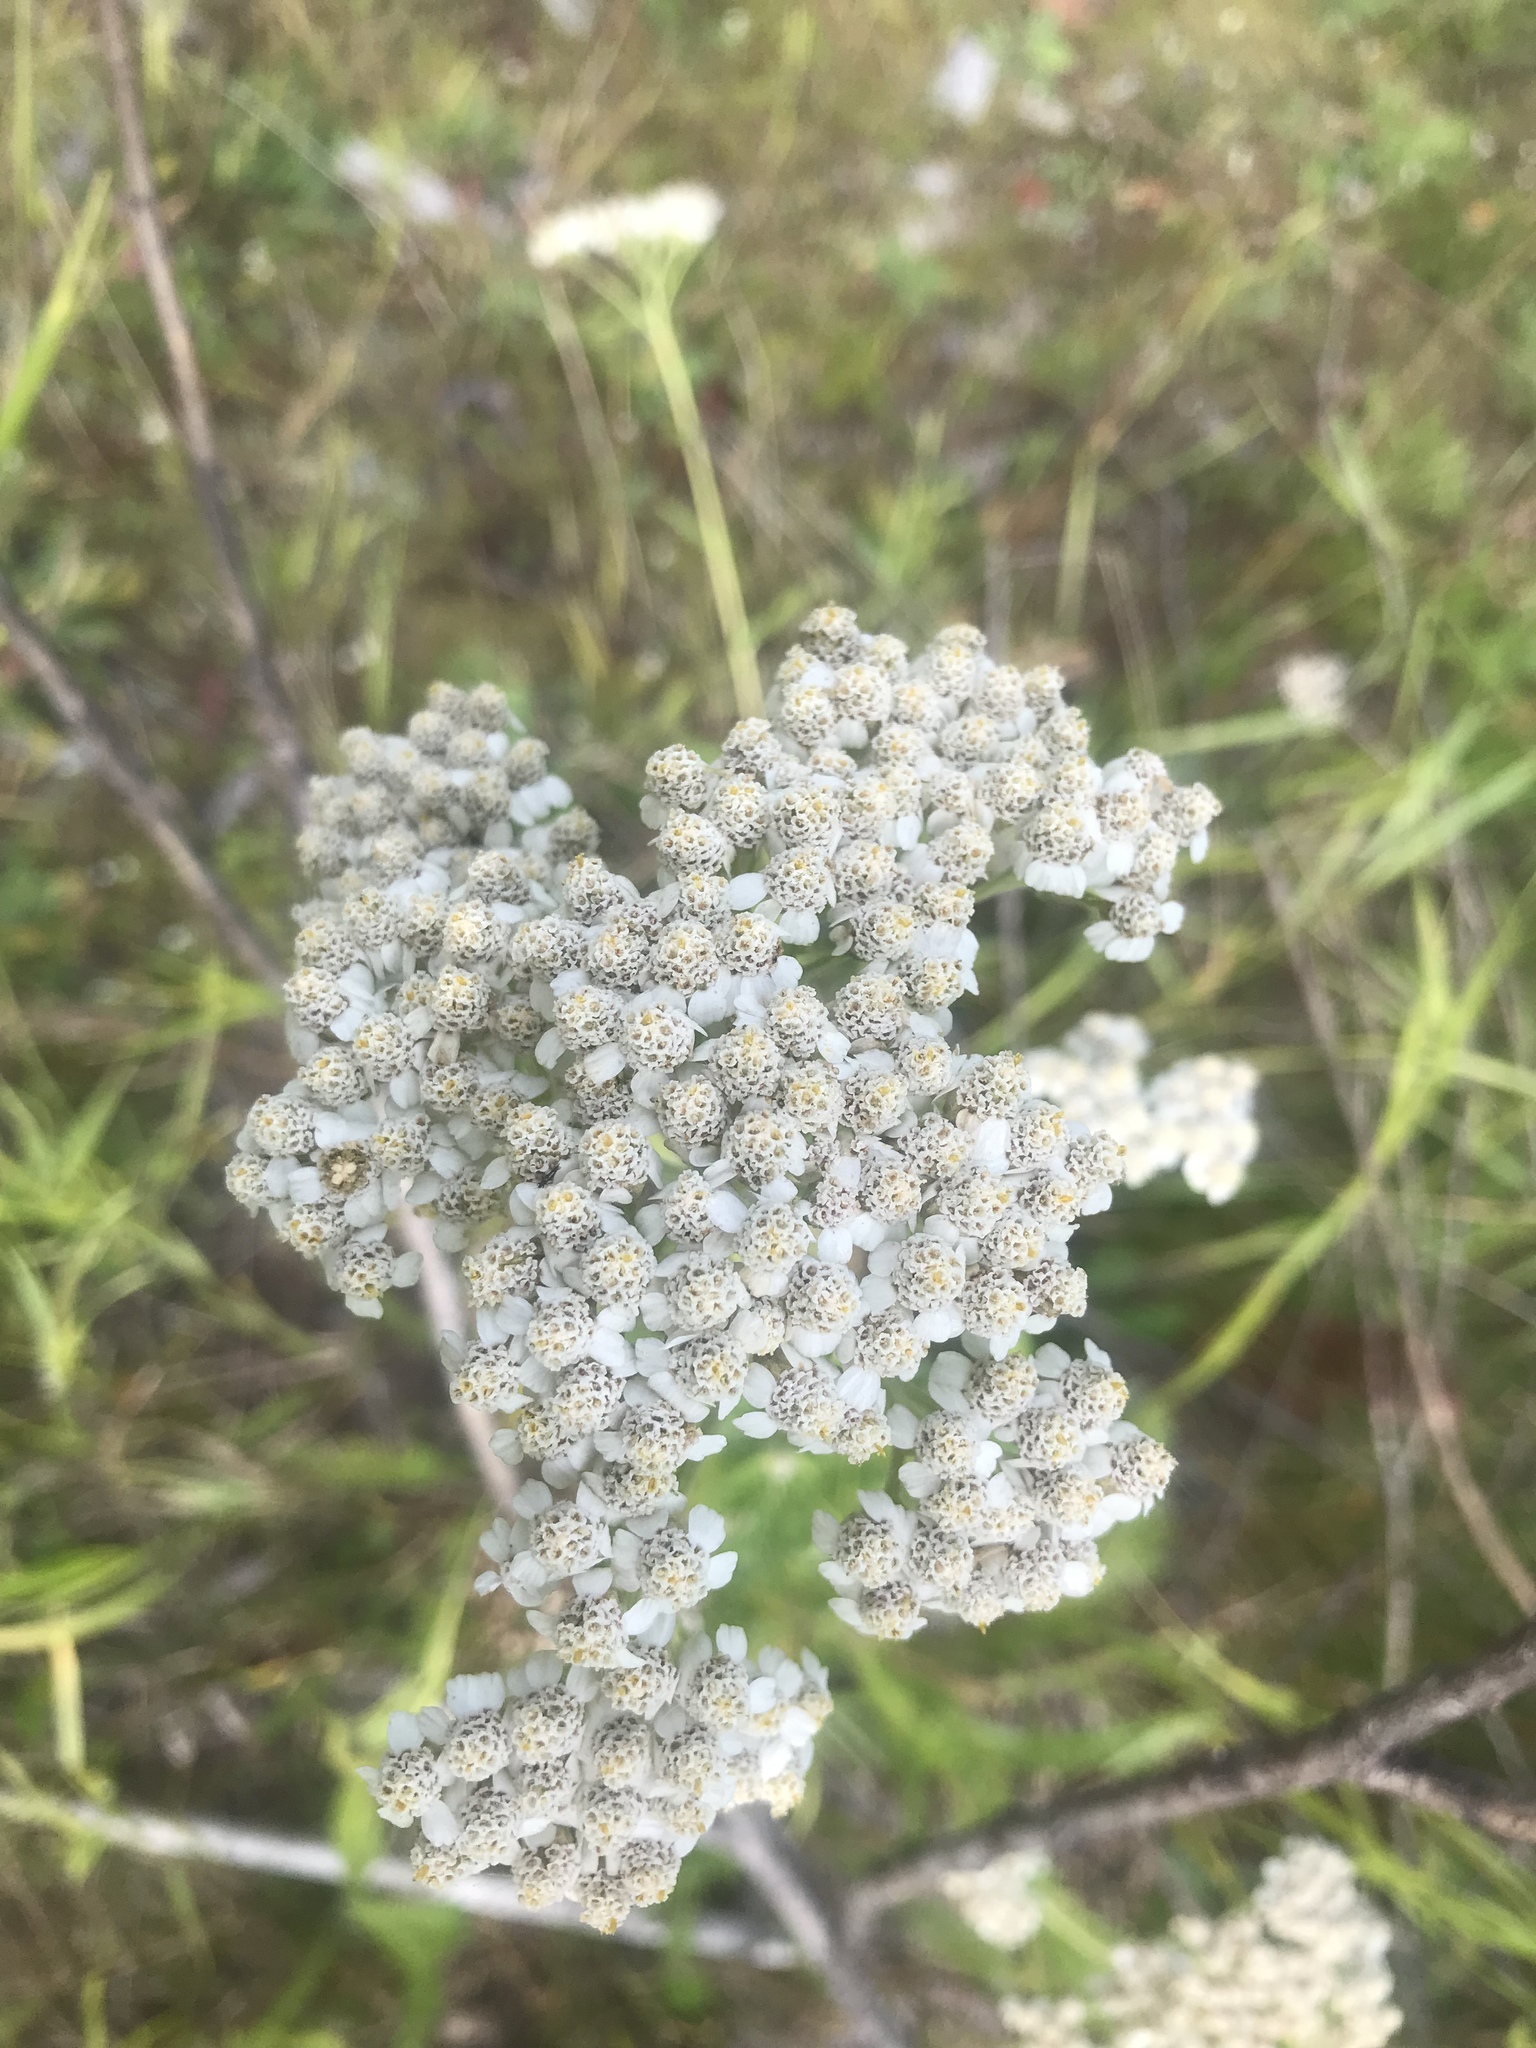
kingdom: Plantae
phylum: Tracheophyta
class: Magnoliopsida
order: Asterales
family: Asteraceae
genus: Achillea
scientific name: Achillea millefolium
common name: Yarrow
